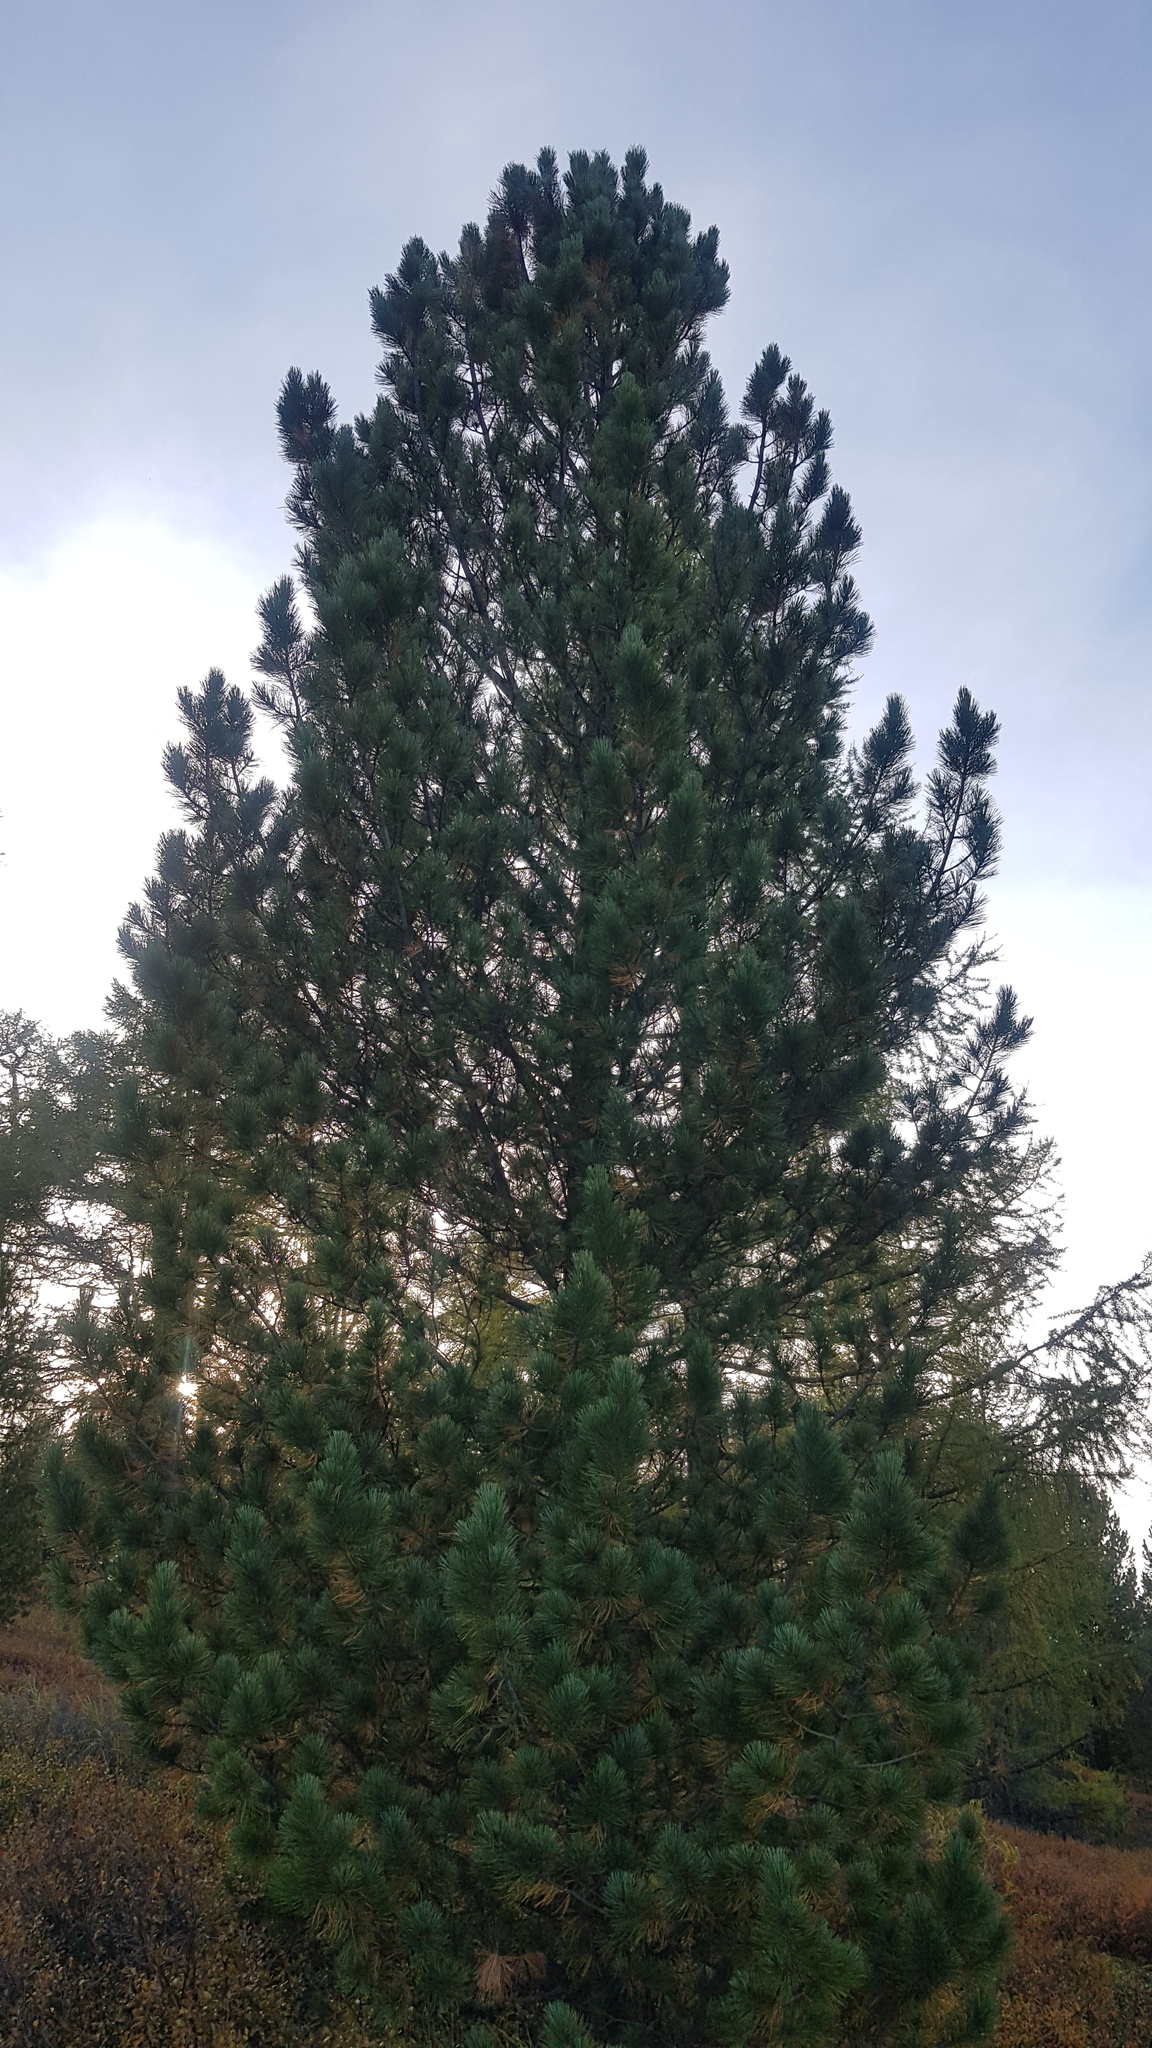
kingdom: Plantae
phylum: Tracheophyta
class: Pinopsida
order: Pinales
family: Pinaceae
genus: Pinus
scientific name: Pinus sibirica
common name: Siberian pine
